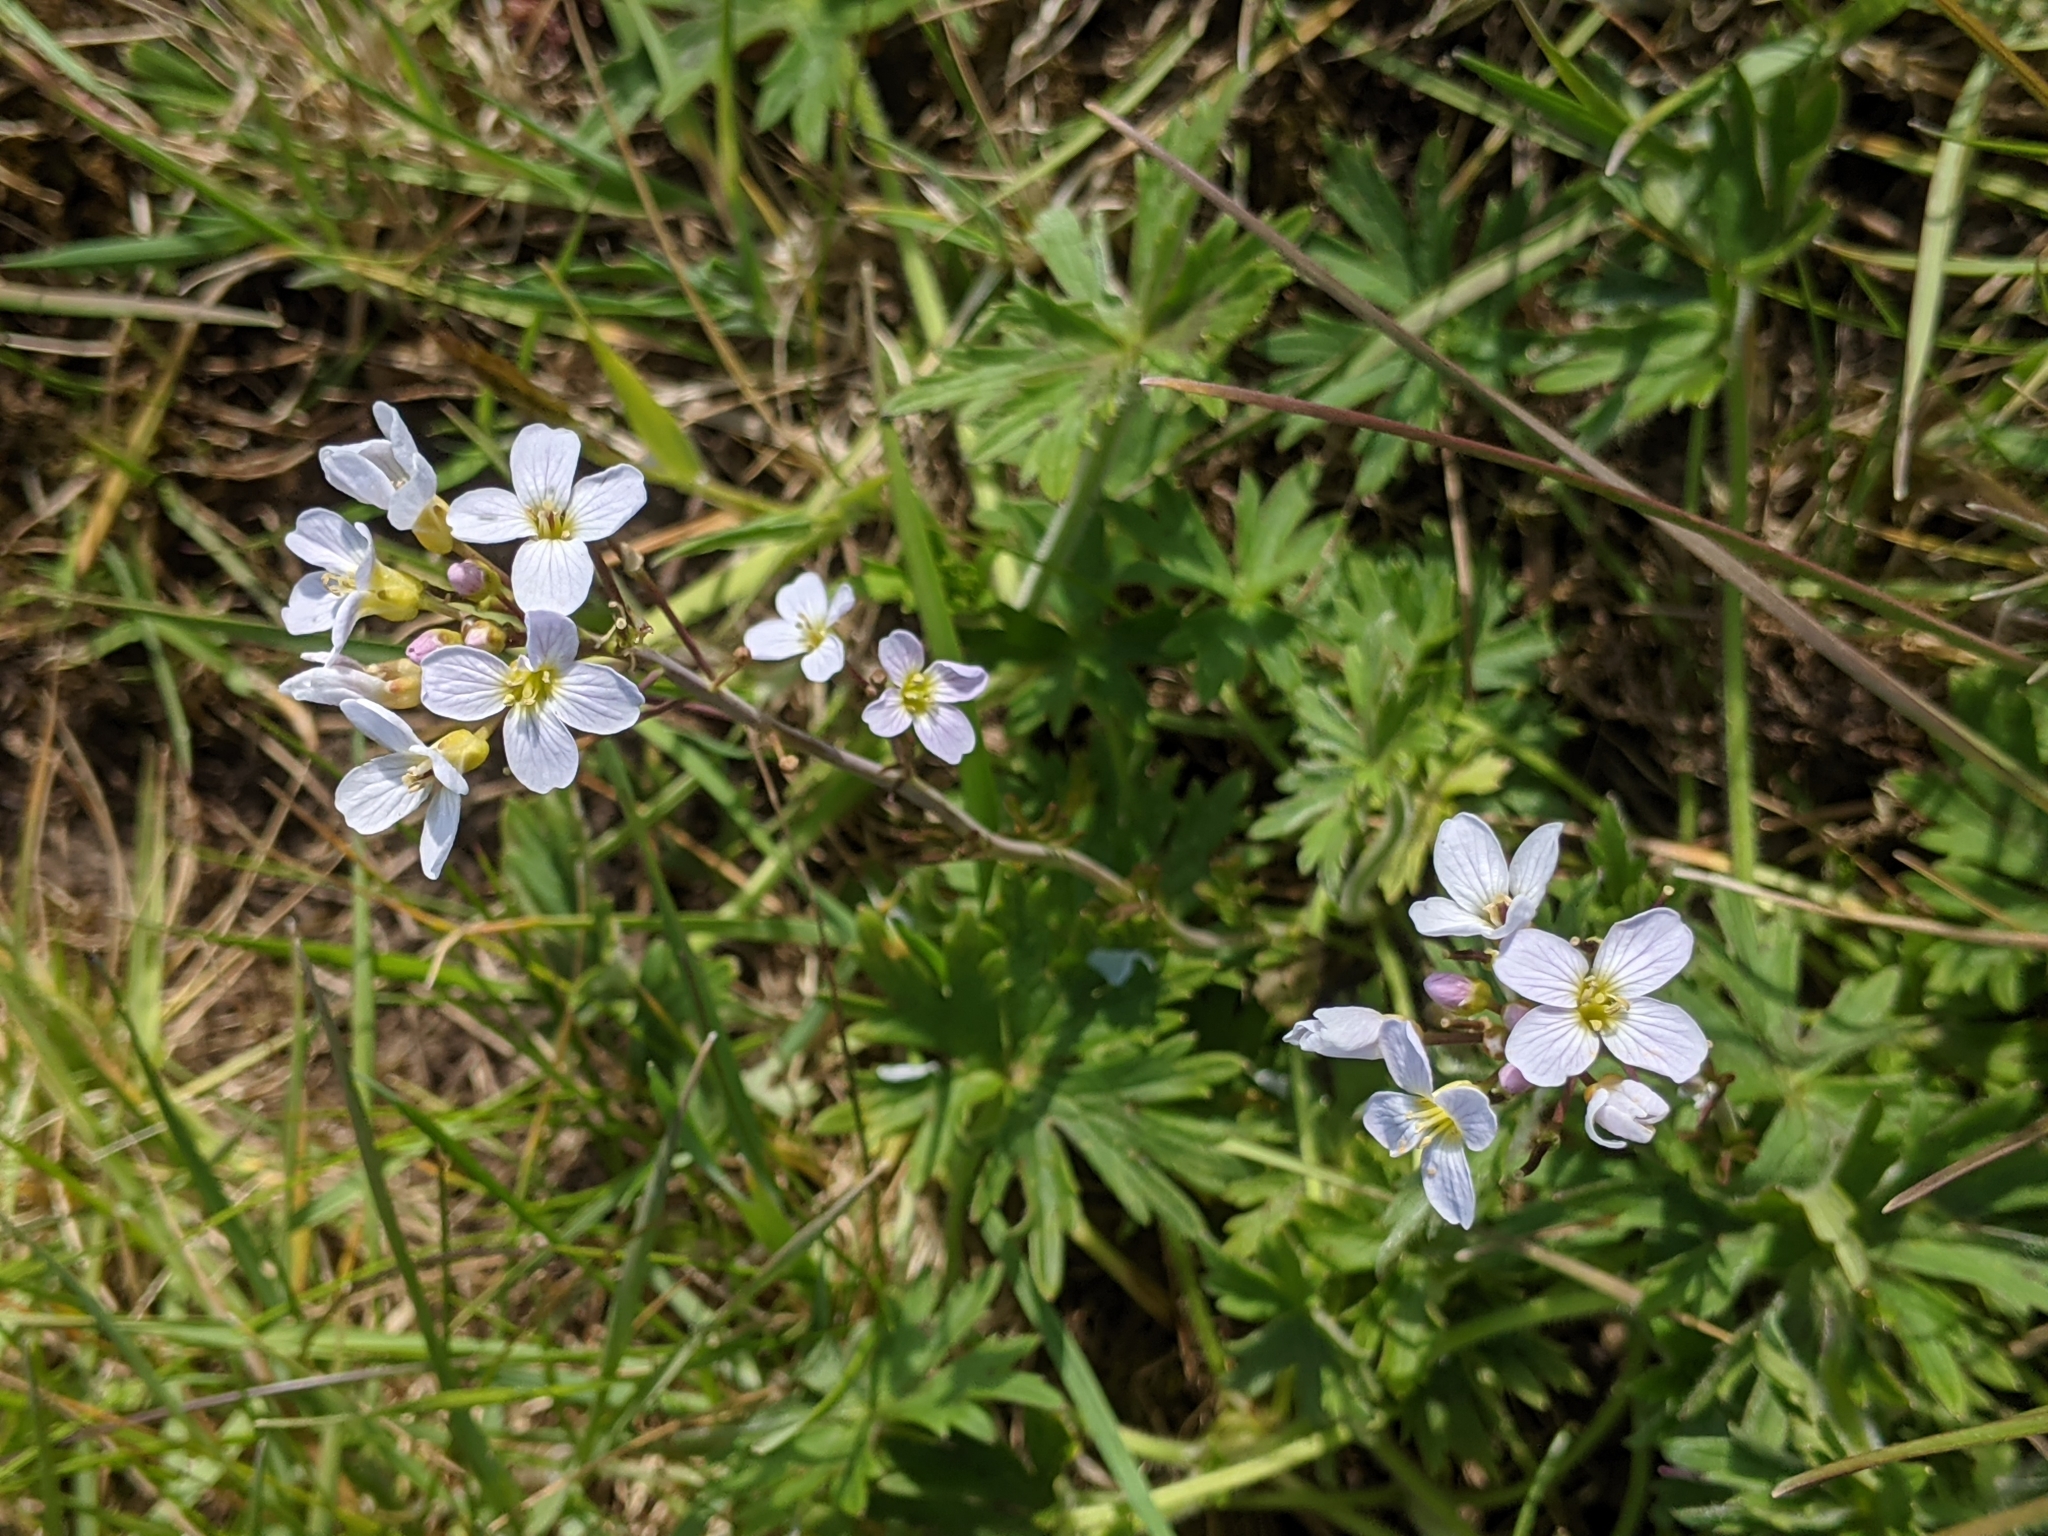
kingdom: Plantae
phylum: Tracheophyta
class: Magnoliopsida
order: Brassicales
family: Brassicaceae
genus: Cardamine
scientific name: Cardamine pratensis
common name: Cuckoo flower
